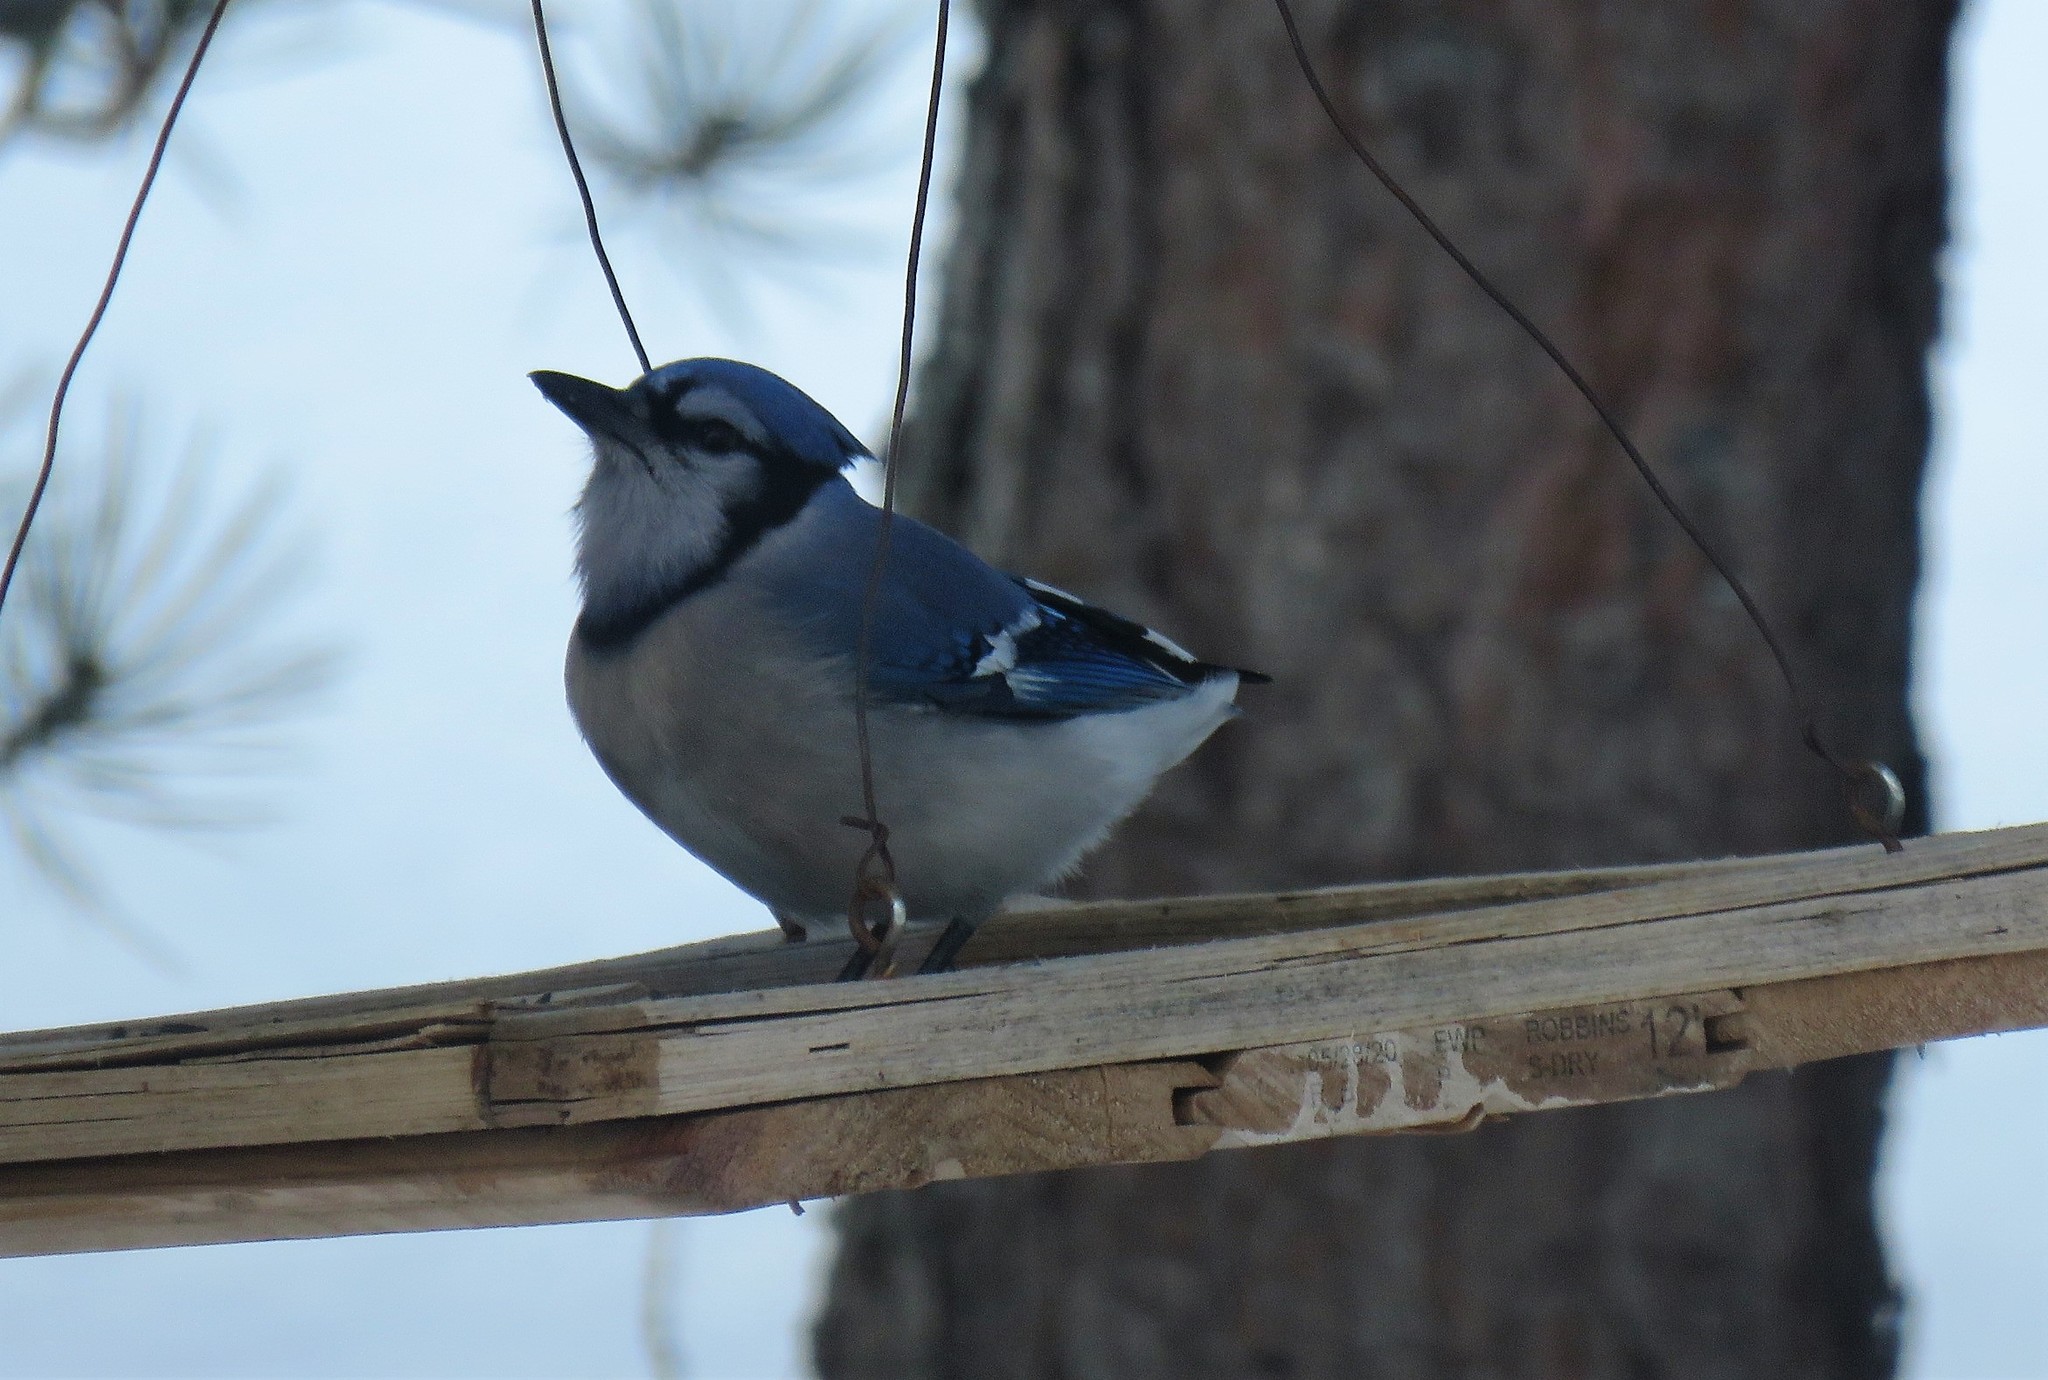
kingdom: Animalia
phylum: Chordata
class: Aves
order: Passeriformes
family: Corvidae
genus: Cyanocitta
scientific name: Cyanocitta cristata
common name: Blue jay
